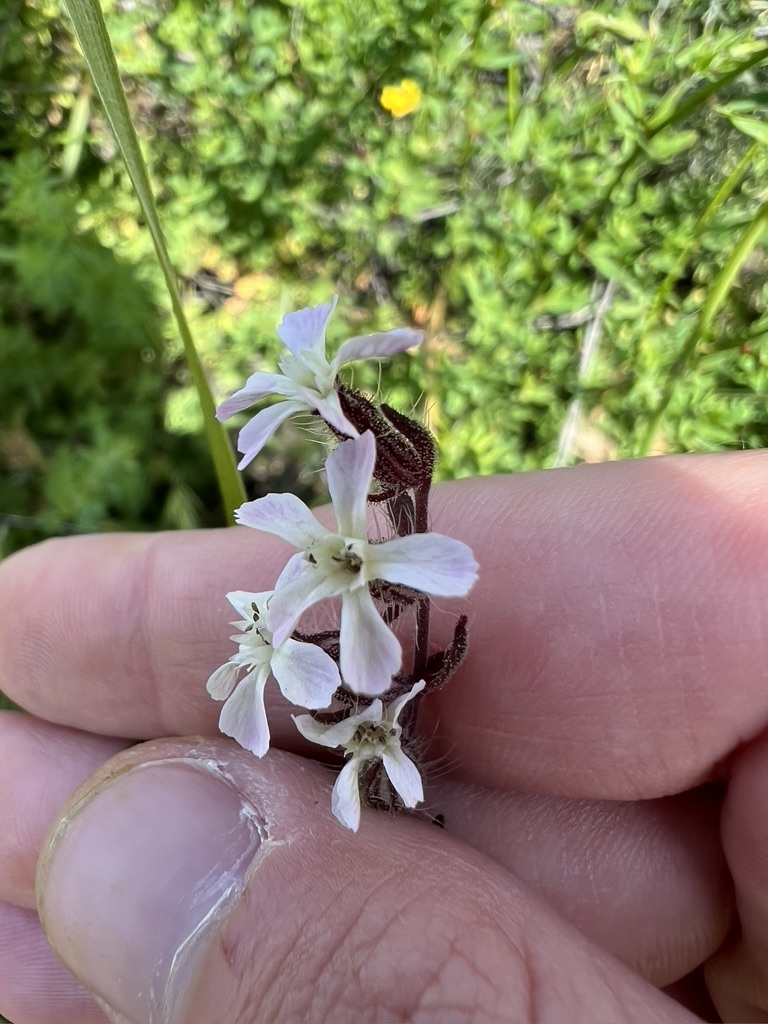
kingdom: Plantae
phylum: Tracheophyta
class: Magnoliopsida
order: Caryophyllales
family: Caryophyllaceae
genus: Silene
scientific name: Silene gallica
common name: Small-flowered catchfly
